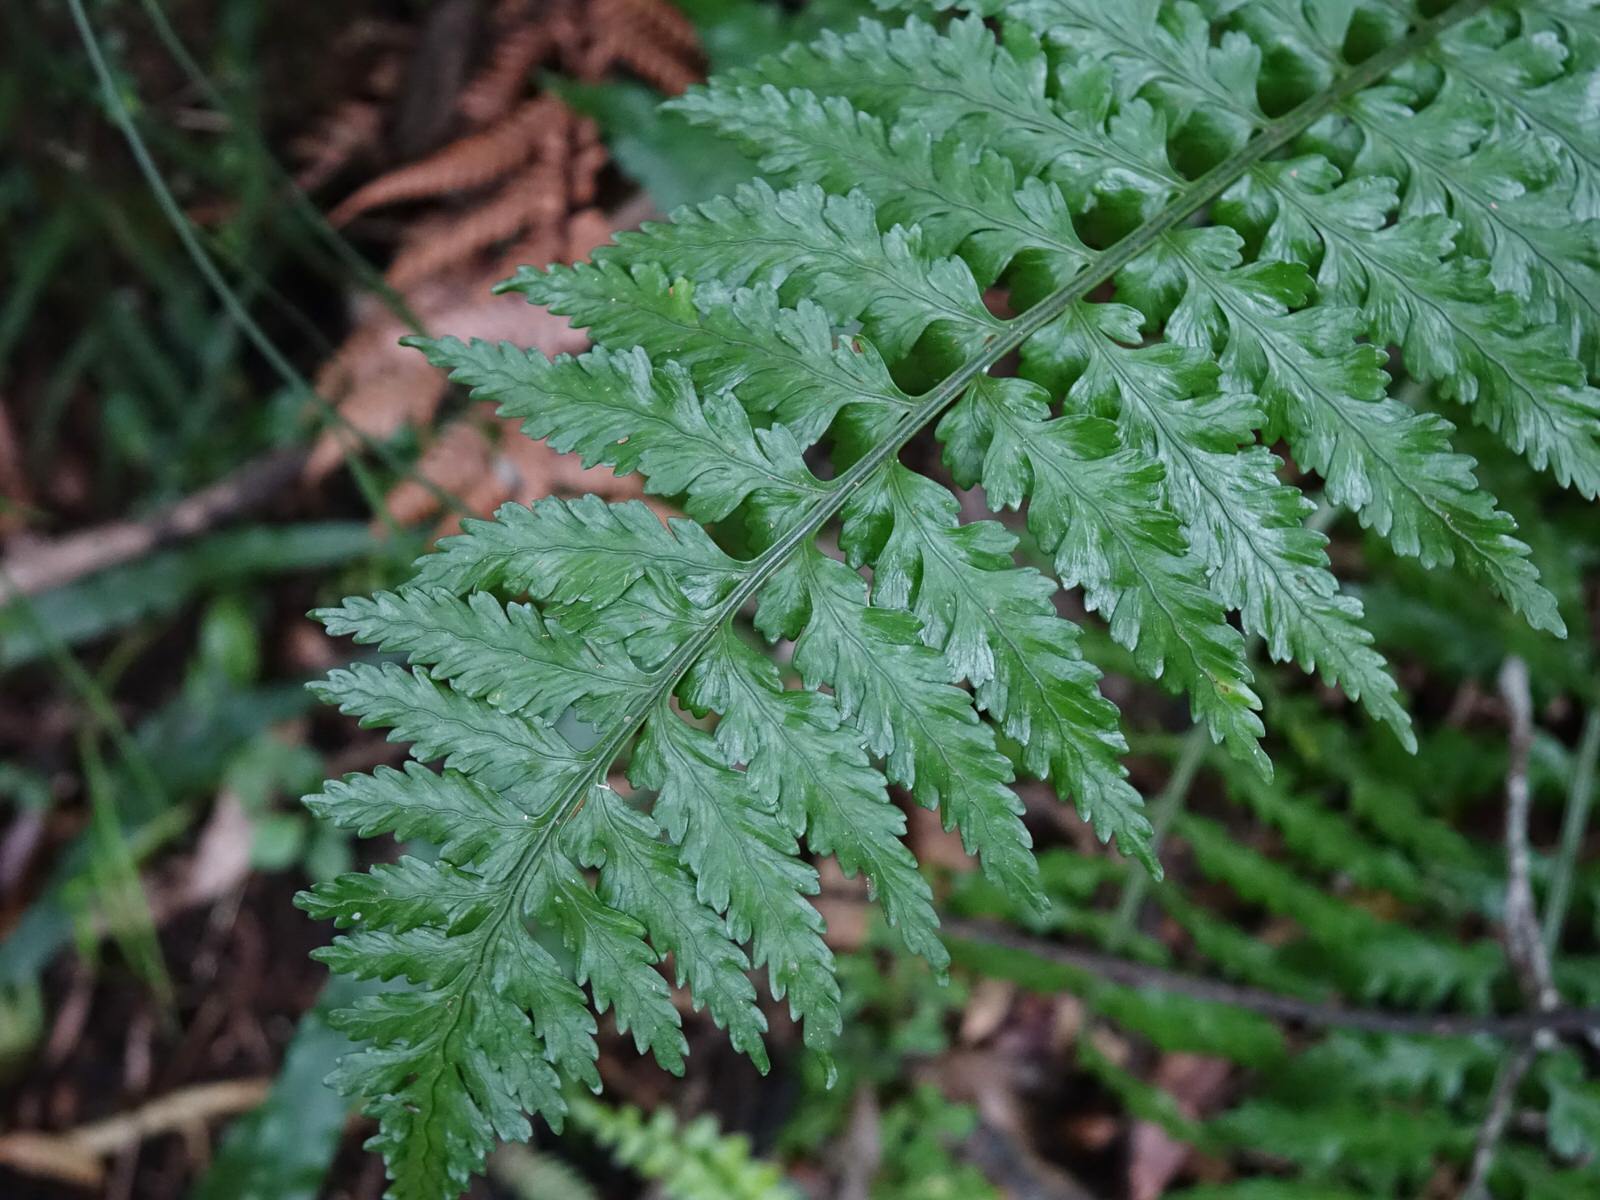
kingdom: Plantae
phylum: Tracheophyta
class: Polypodiopsida
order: Polypodiales
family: Aspleniaceae
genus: Asplenium
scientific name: Asplenium lamprophyllum
